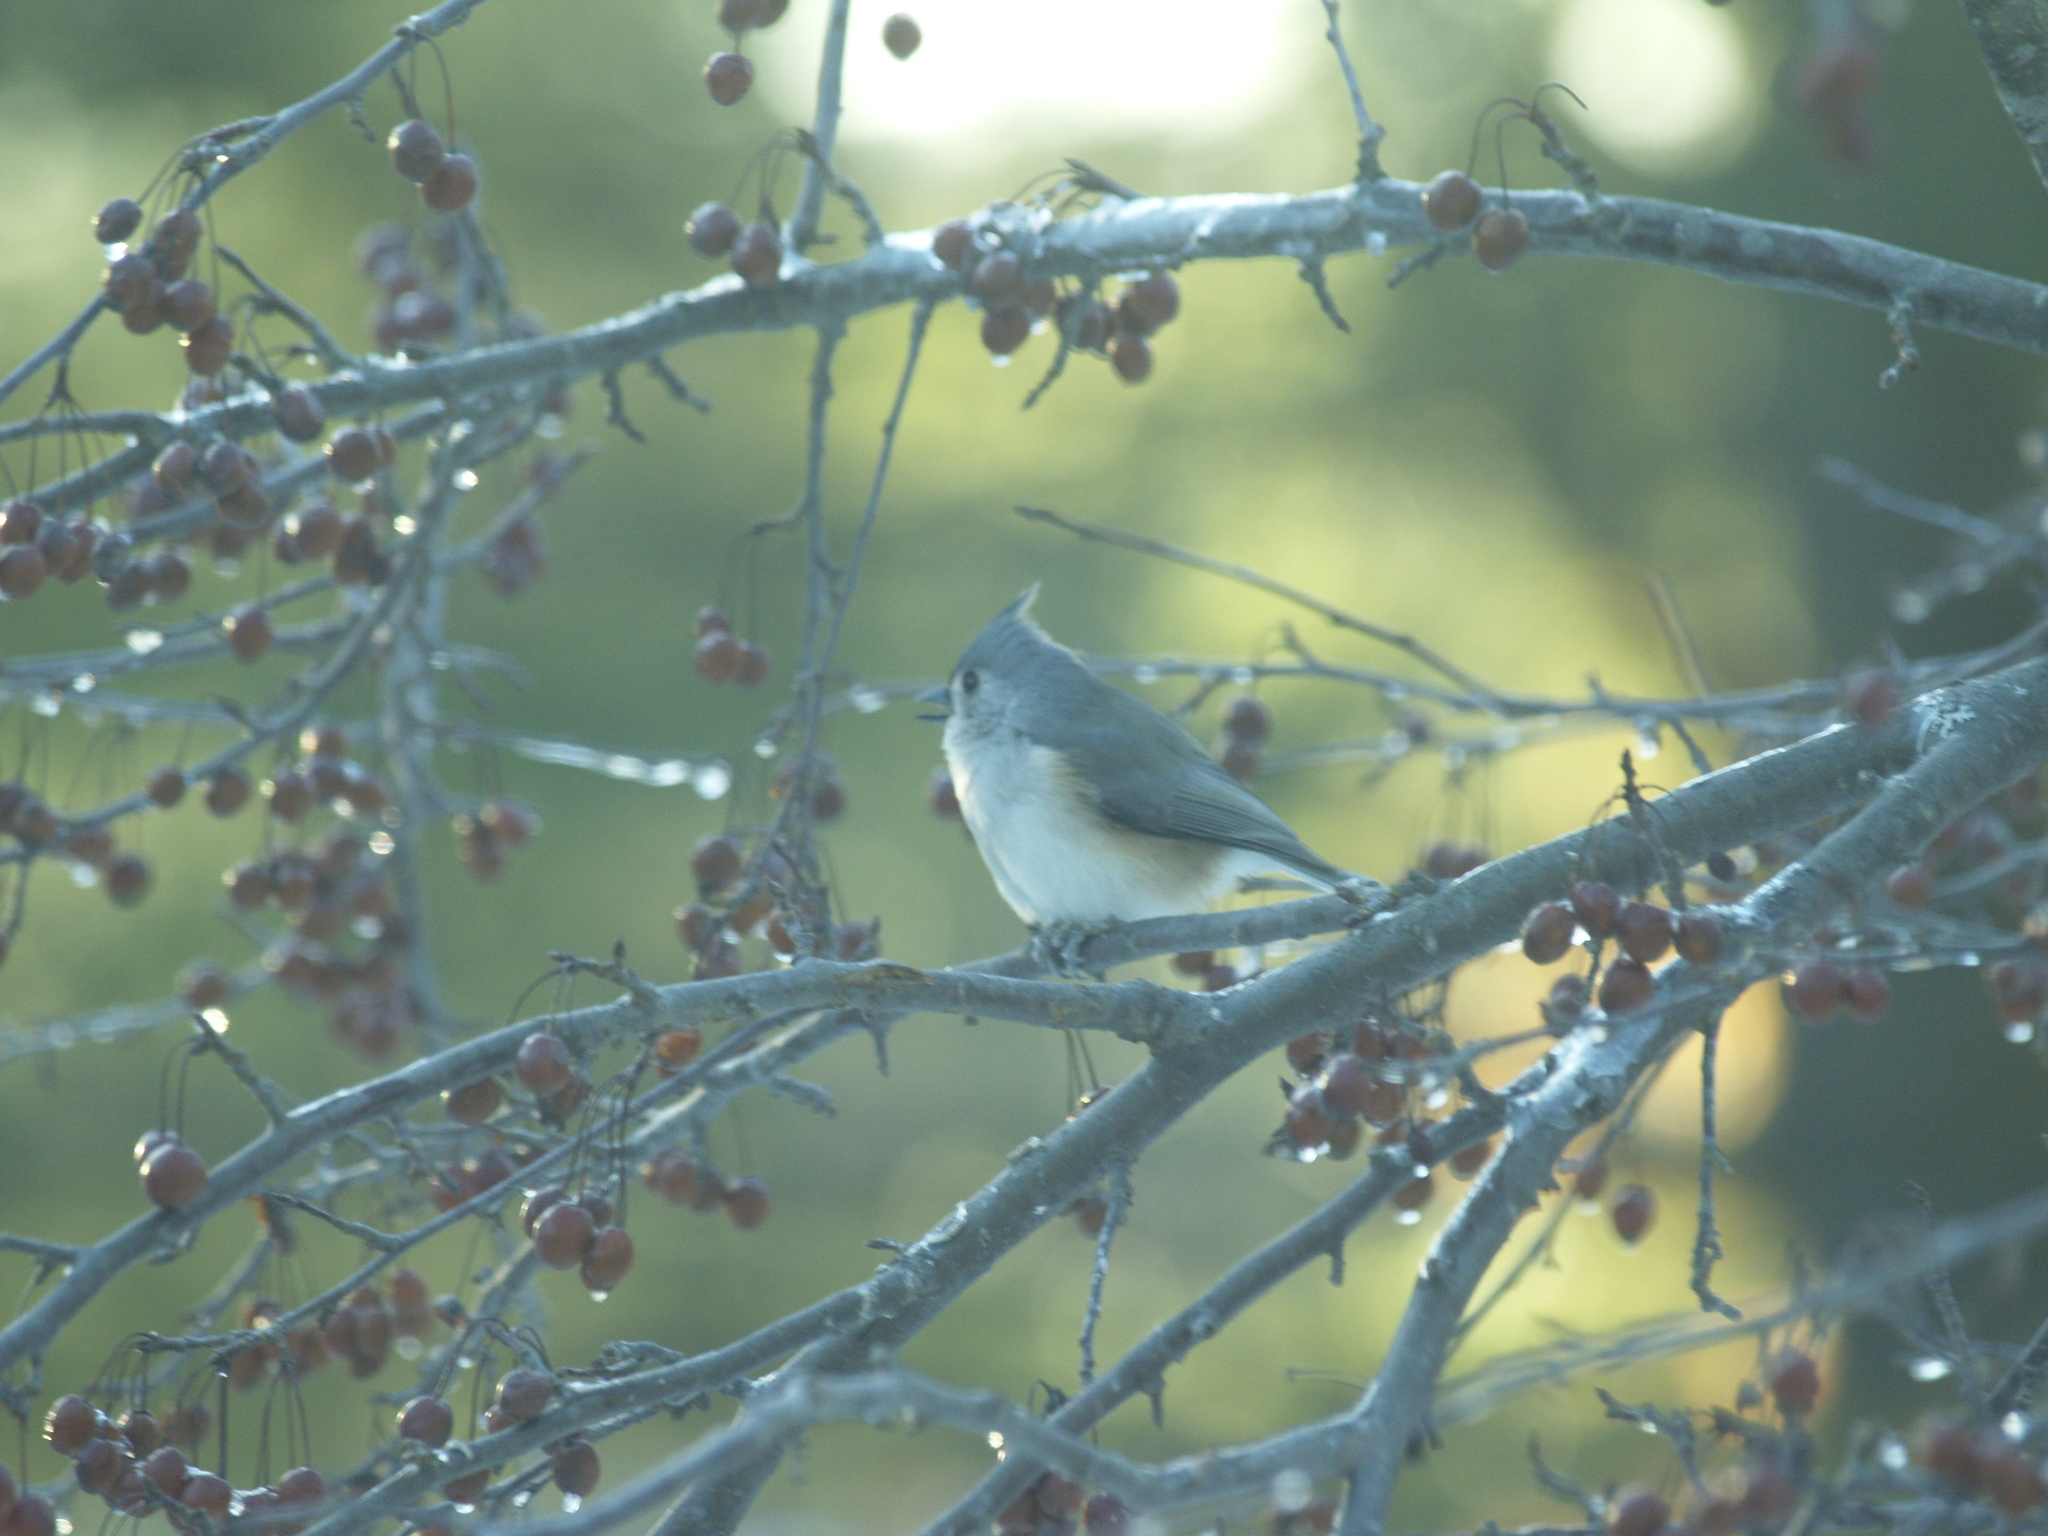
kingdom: Animalia
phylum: Chordata
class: Aves
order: Passeriformes
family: Paridae
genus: Baeolophus
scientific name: Baeolophus bicolor
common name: Tufted titmouse
